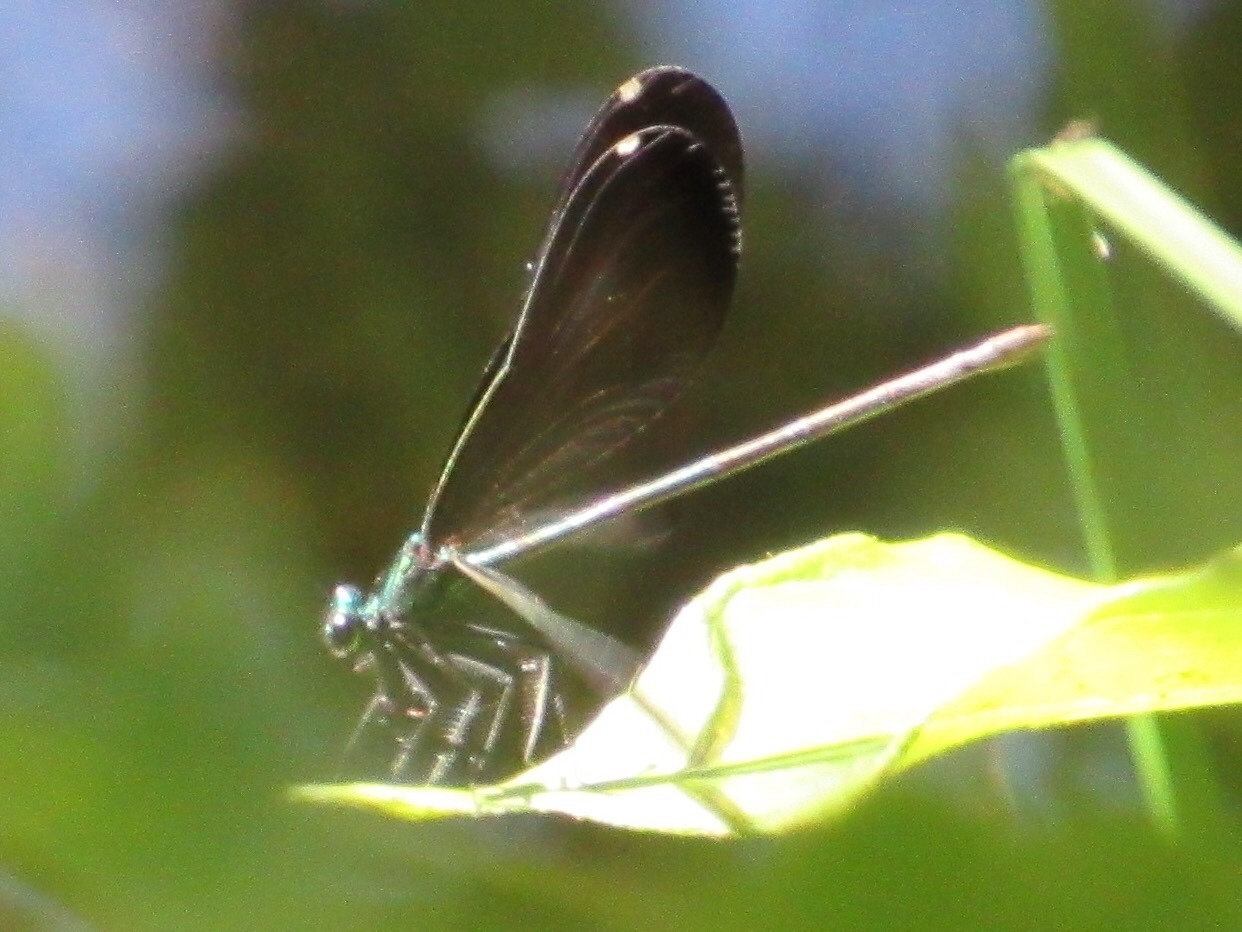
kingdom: Animalia
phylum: Arthropoda
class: Insecta
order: Odonata
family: Calopterygidae
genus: Calopteryx
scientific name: Calopteryx maculata
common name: Ebony jewelwing
